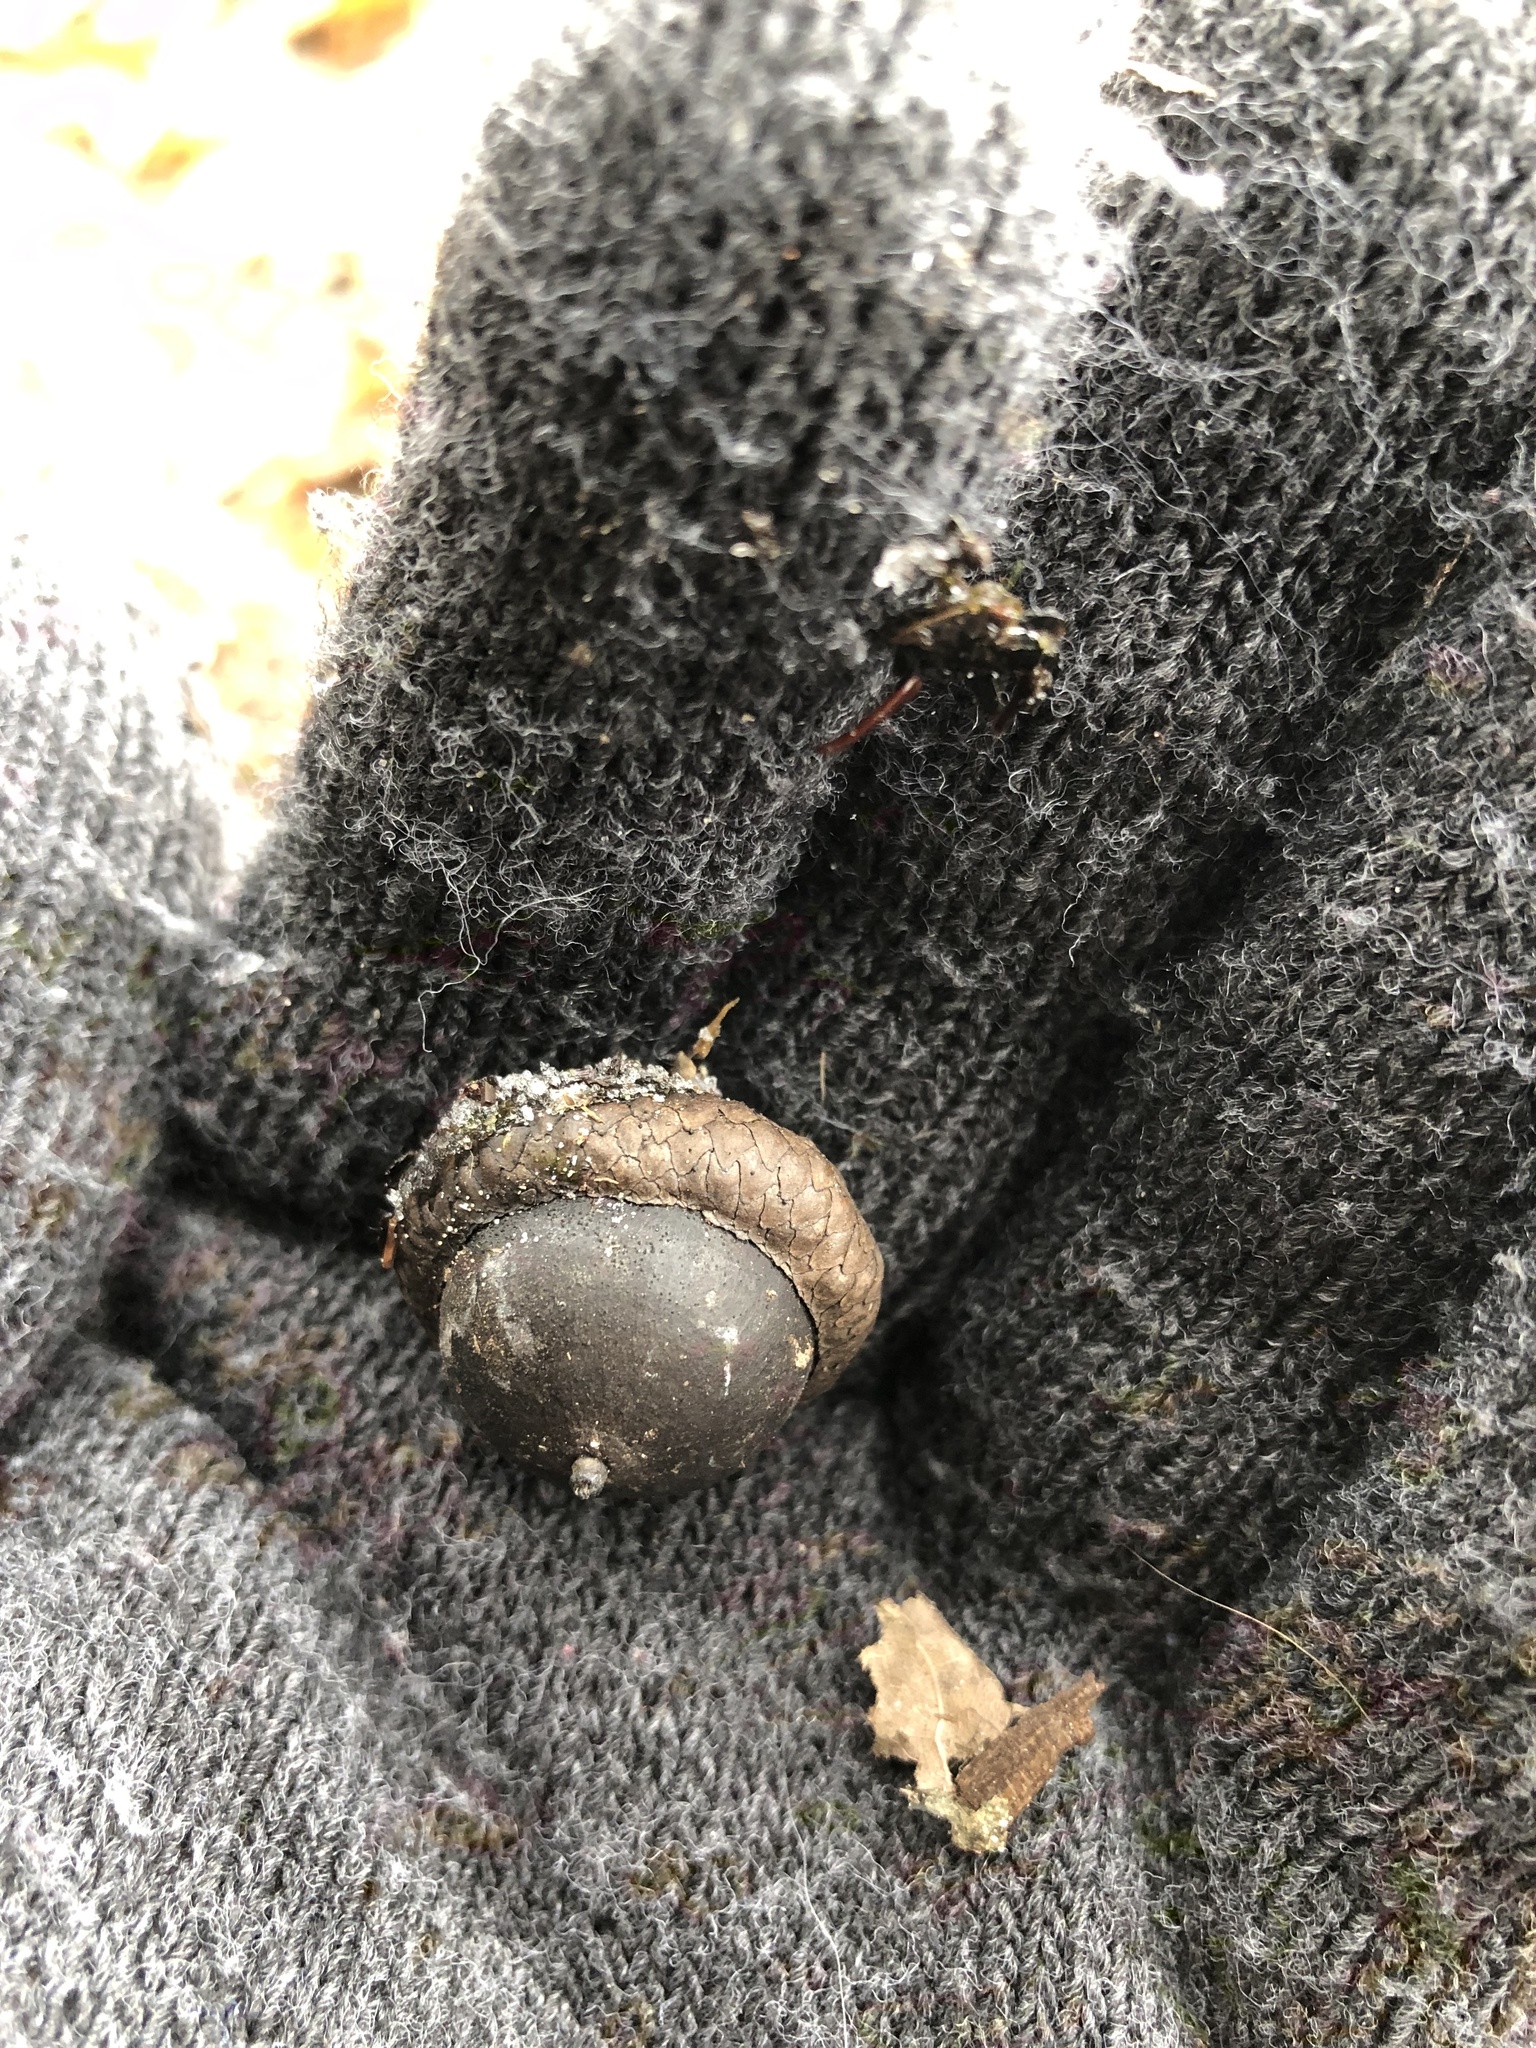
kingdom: Plantae
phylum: Tracheophyta
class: Magnoliopsida
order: Fagales
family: Fagaceae
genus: Quercus
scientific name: Quercus rubra
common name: Red oak
